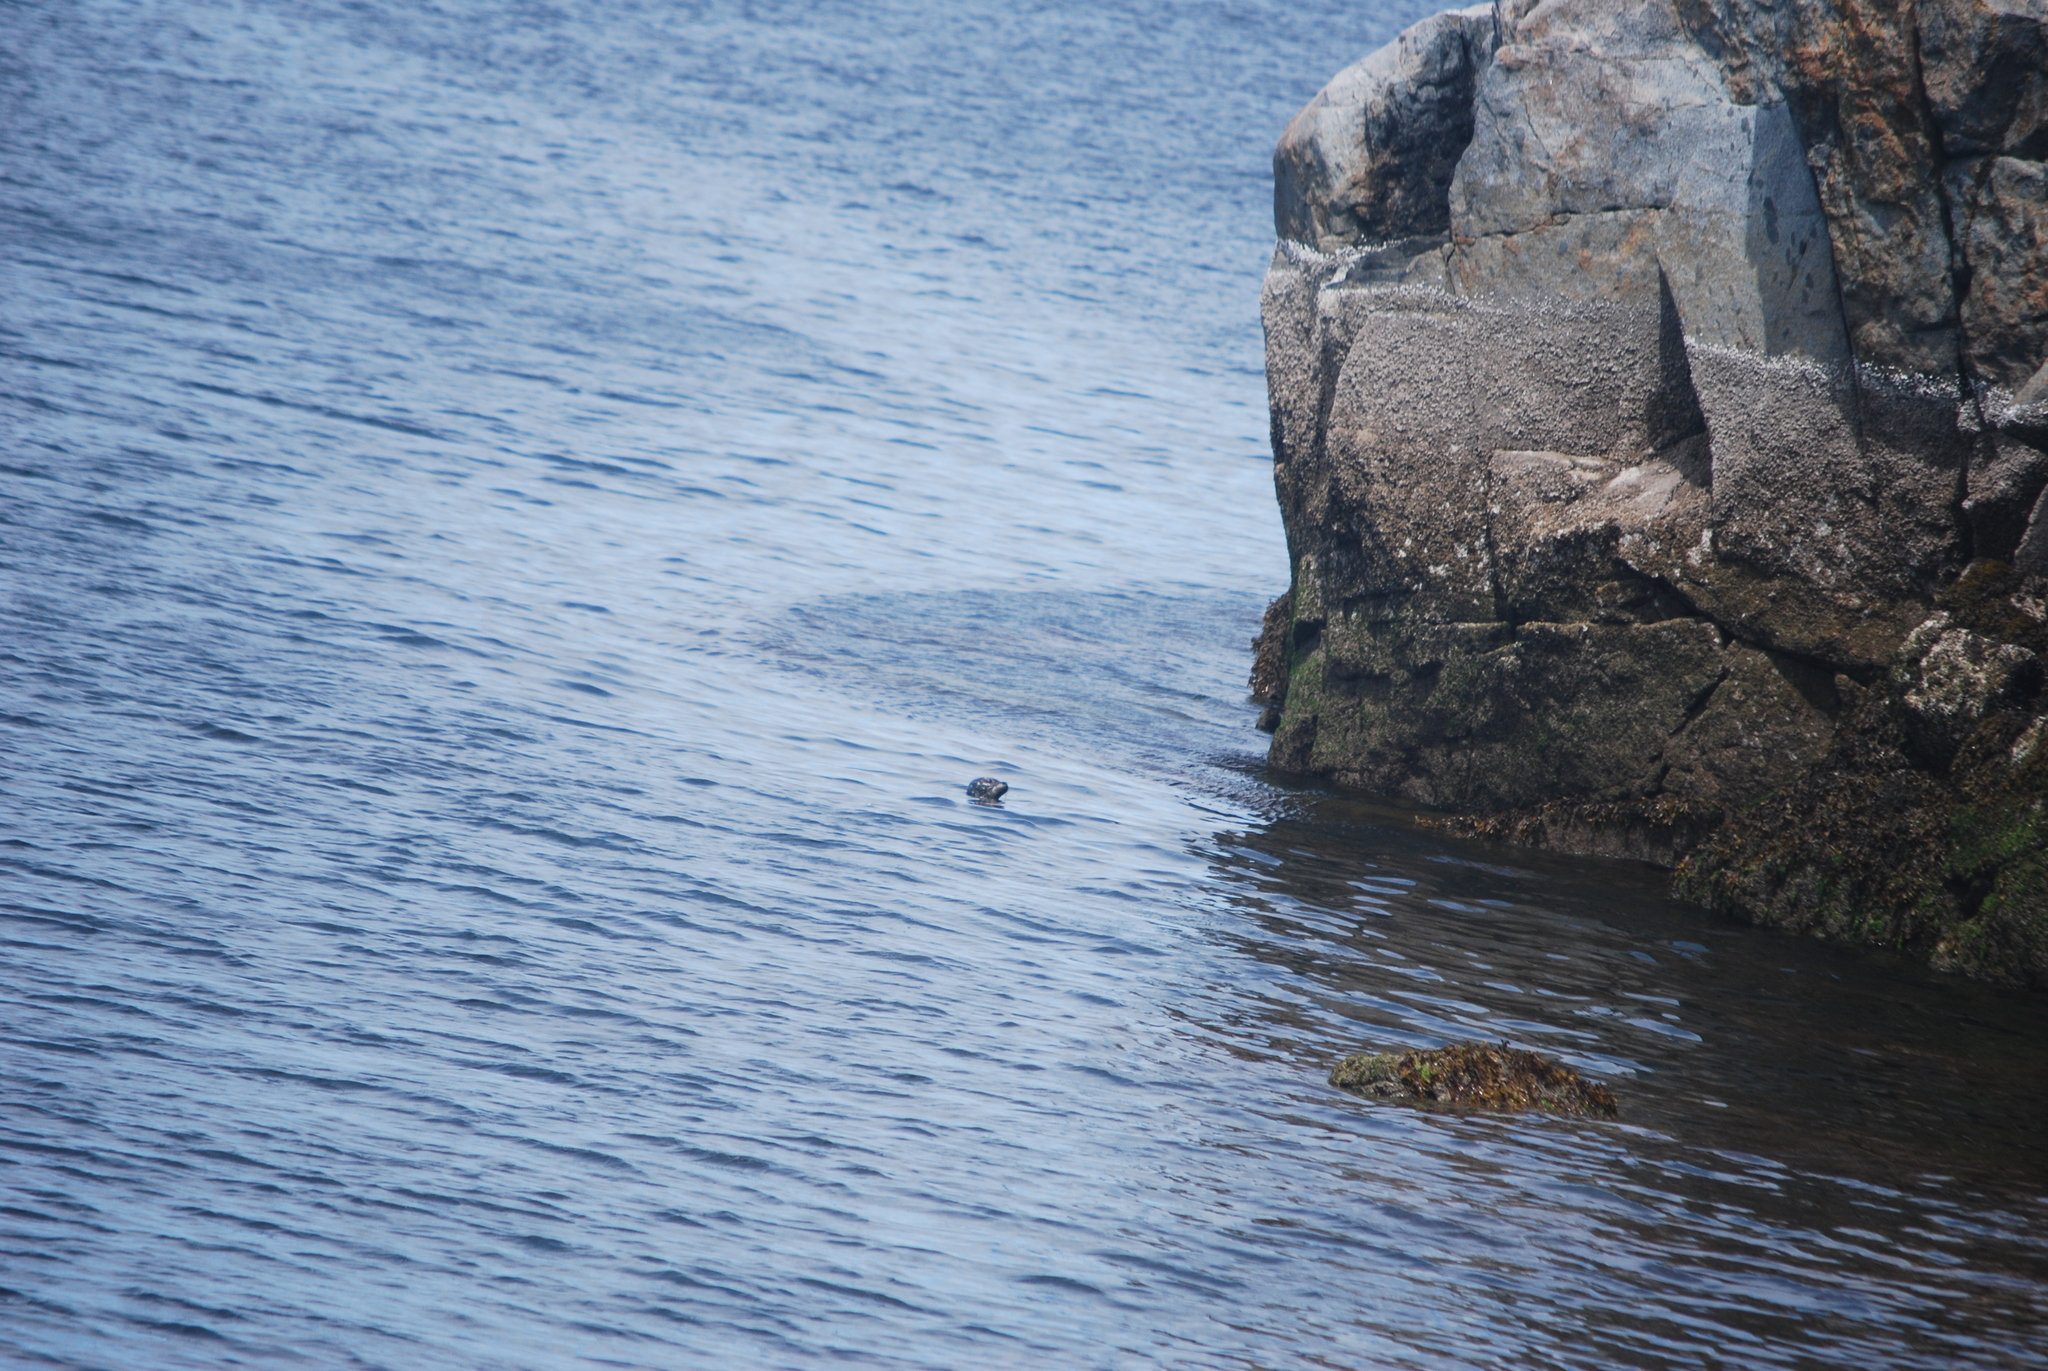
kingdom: Animalia
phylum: Chordata
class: Mammalia
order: Carnivora
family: Phocidae
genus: Phoca
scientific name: Phoca vitulina
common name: Harbor seal
